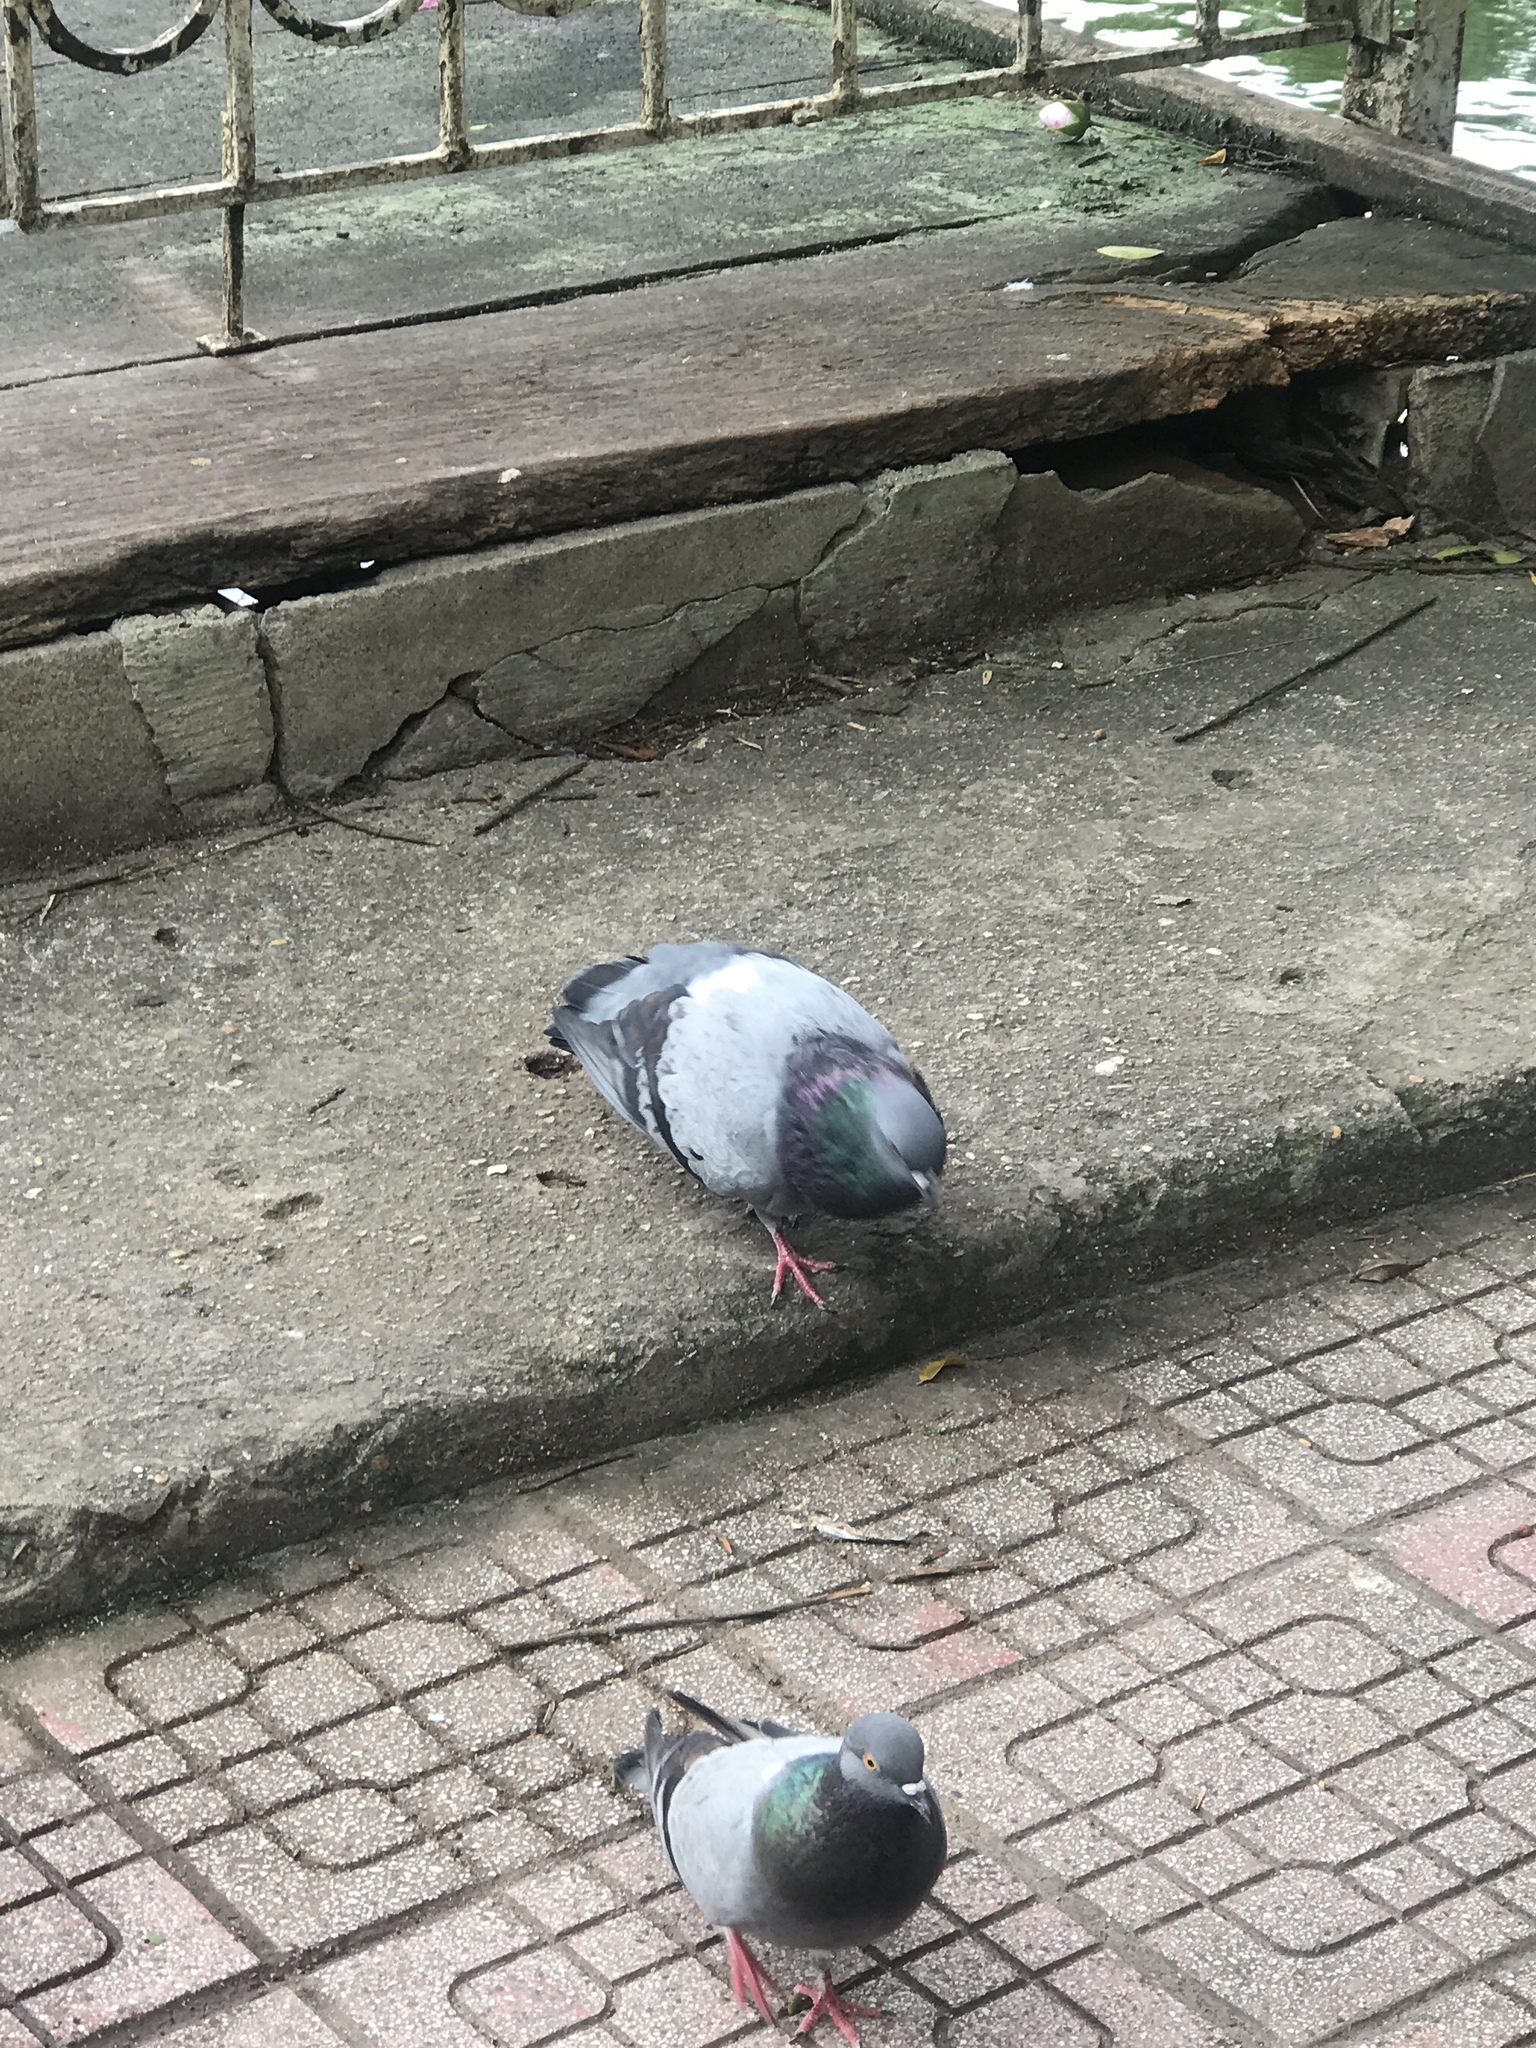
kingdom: Animalia
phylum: Chordata
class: Aves
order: Columbiformes
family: Columbidae
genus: Columba
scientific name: Columba livia
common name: Rock pigeon
